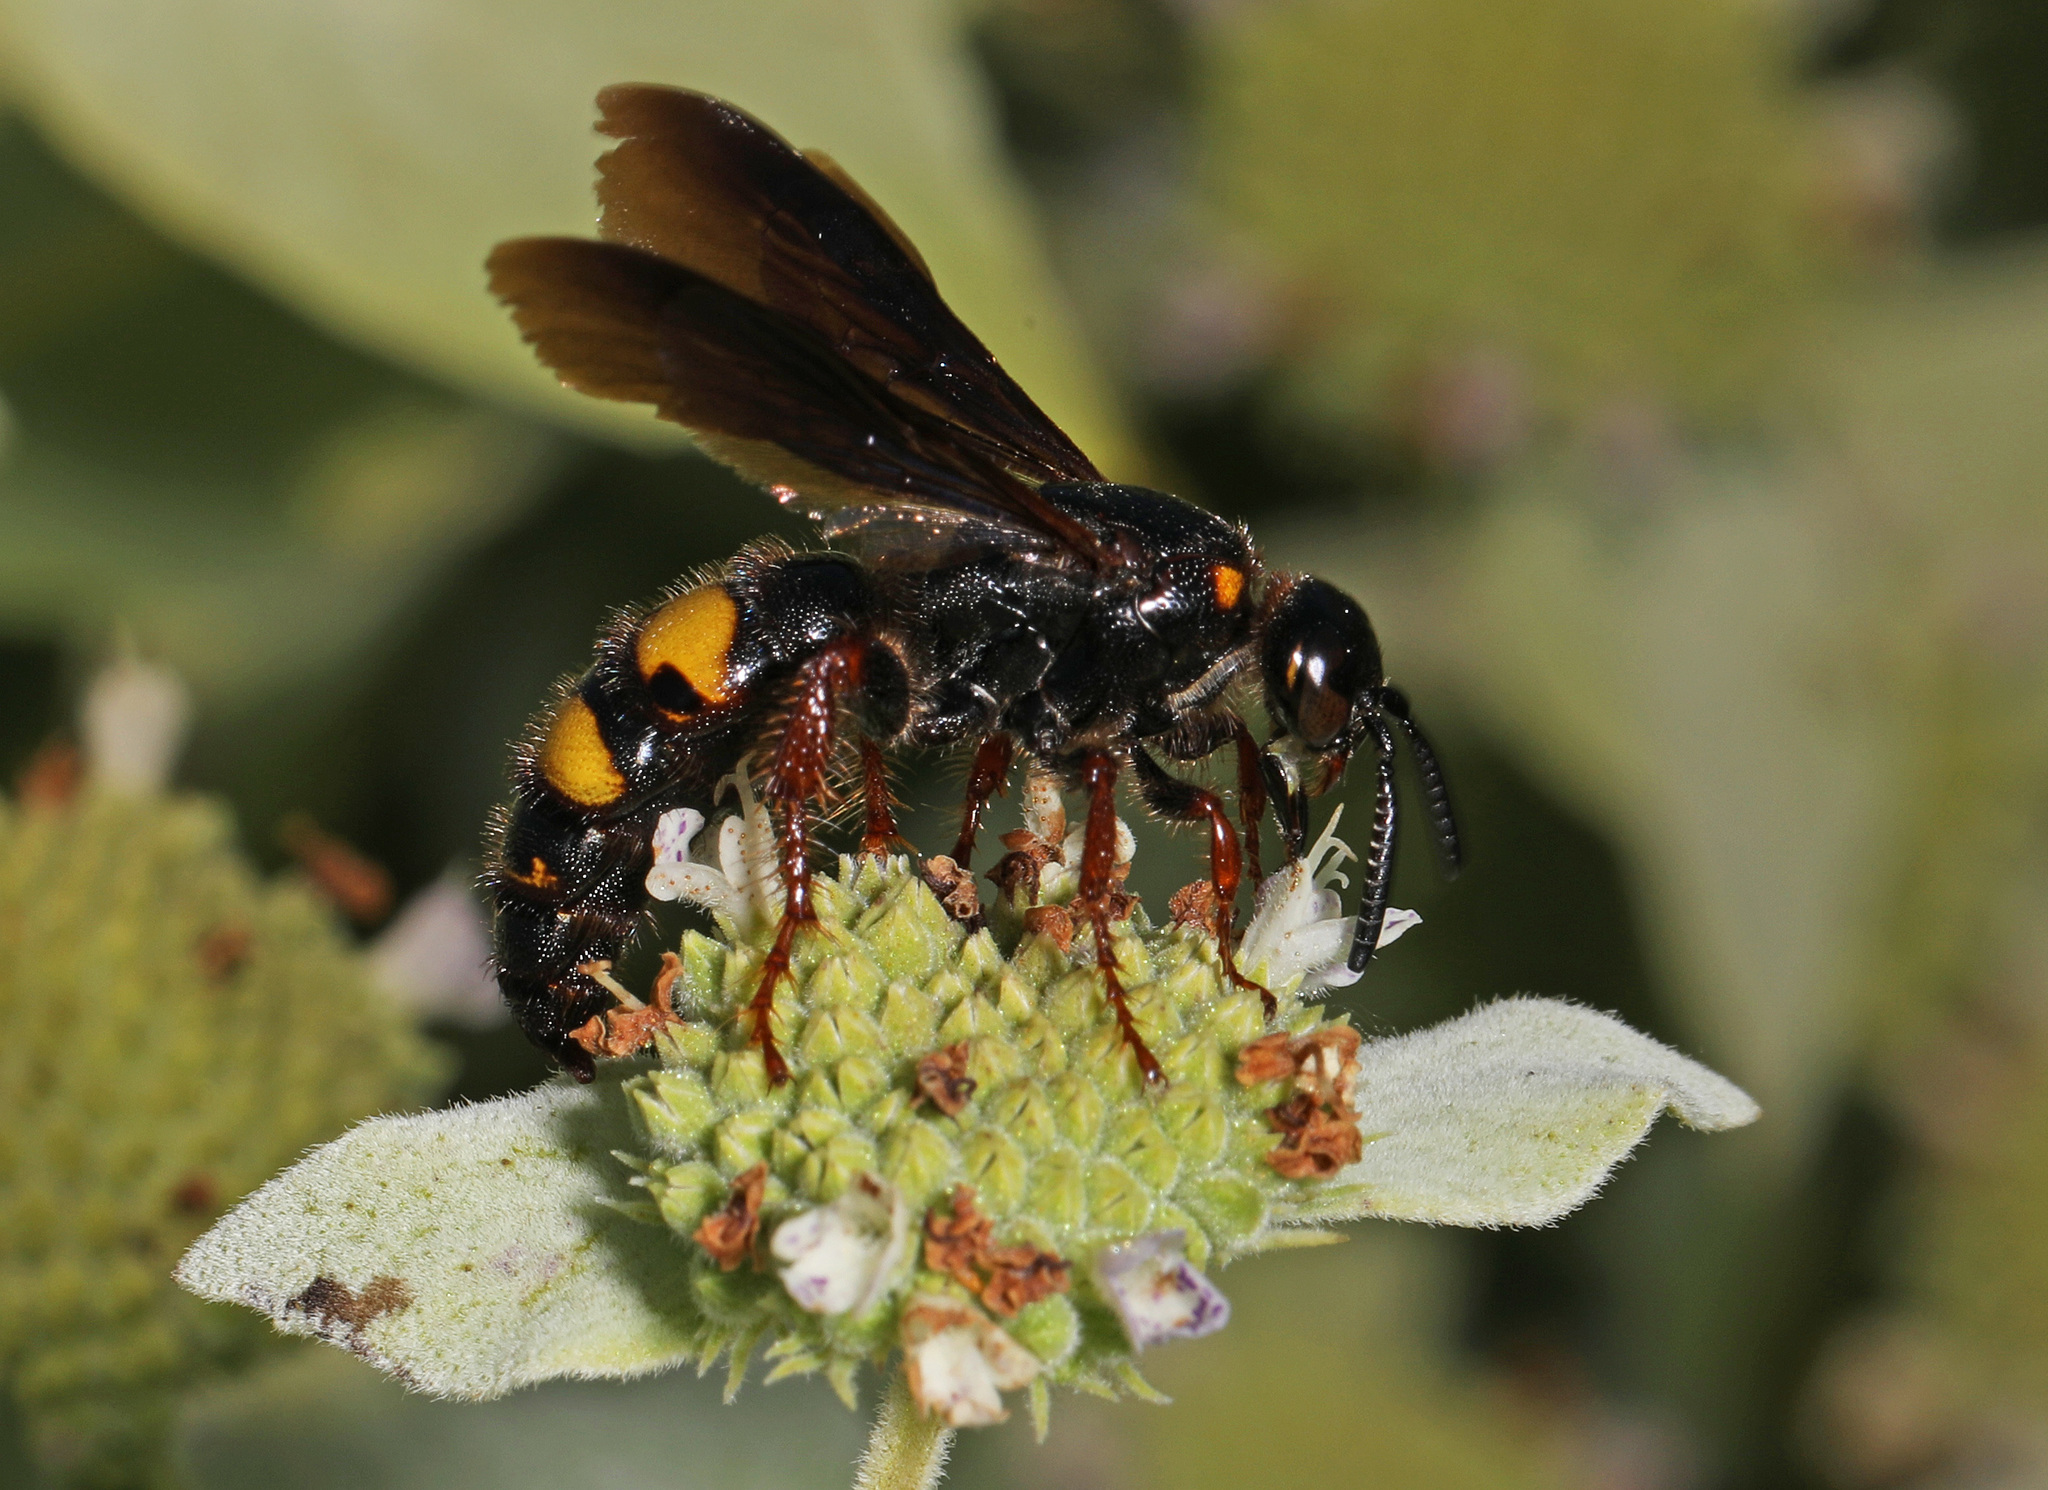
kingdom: Animalia
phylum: Arthropoda
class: Insecta
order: Hymenoptera
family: Scoliidae
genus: Scolia
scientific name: Scolia nobilitata
